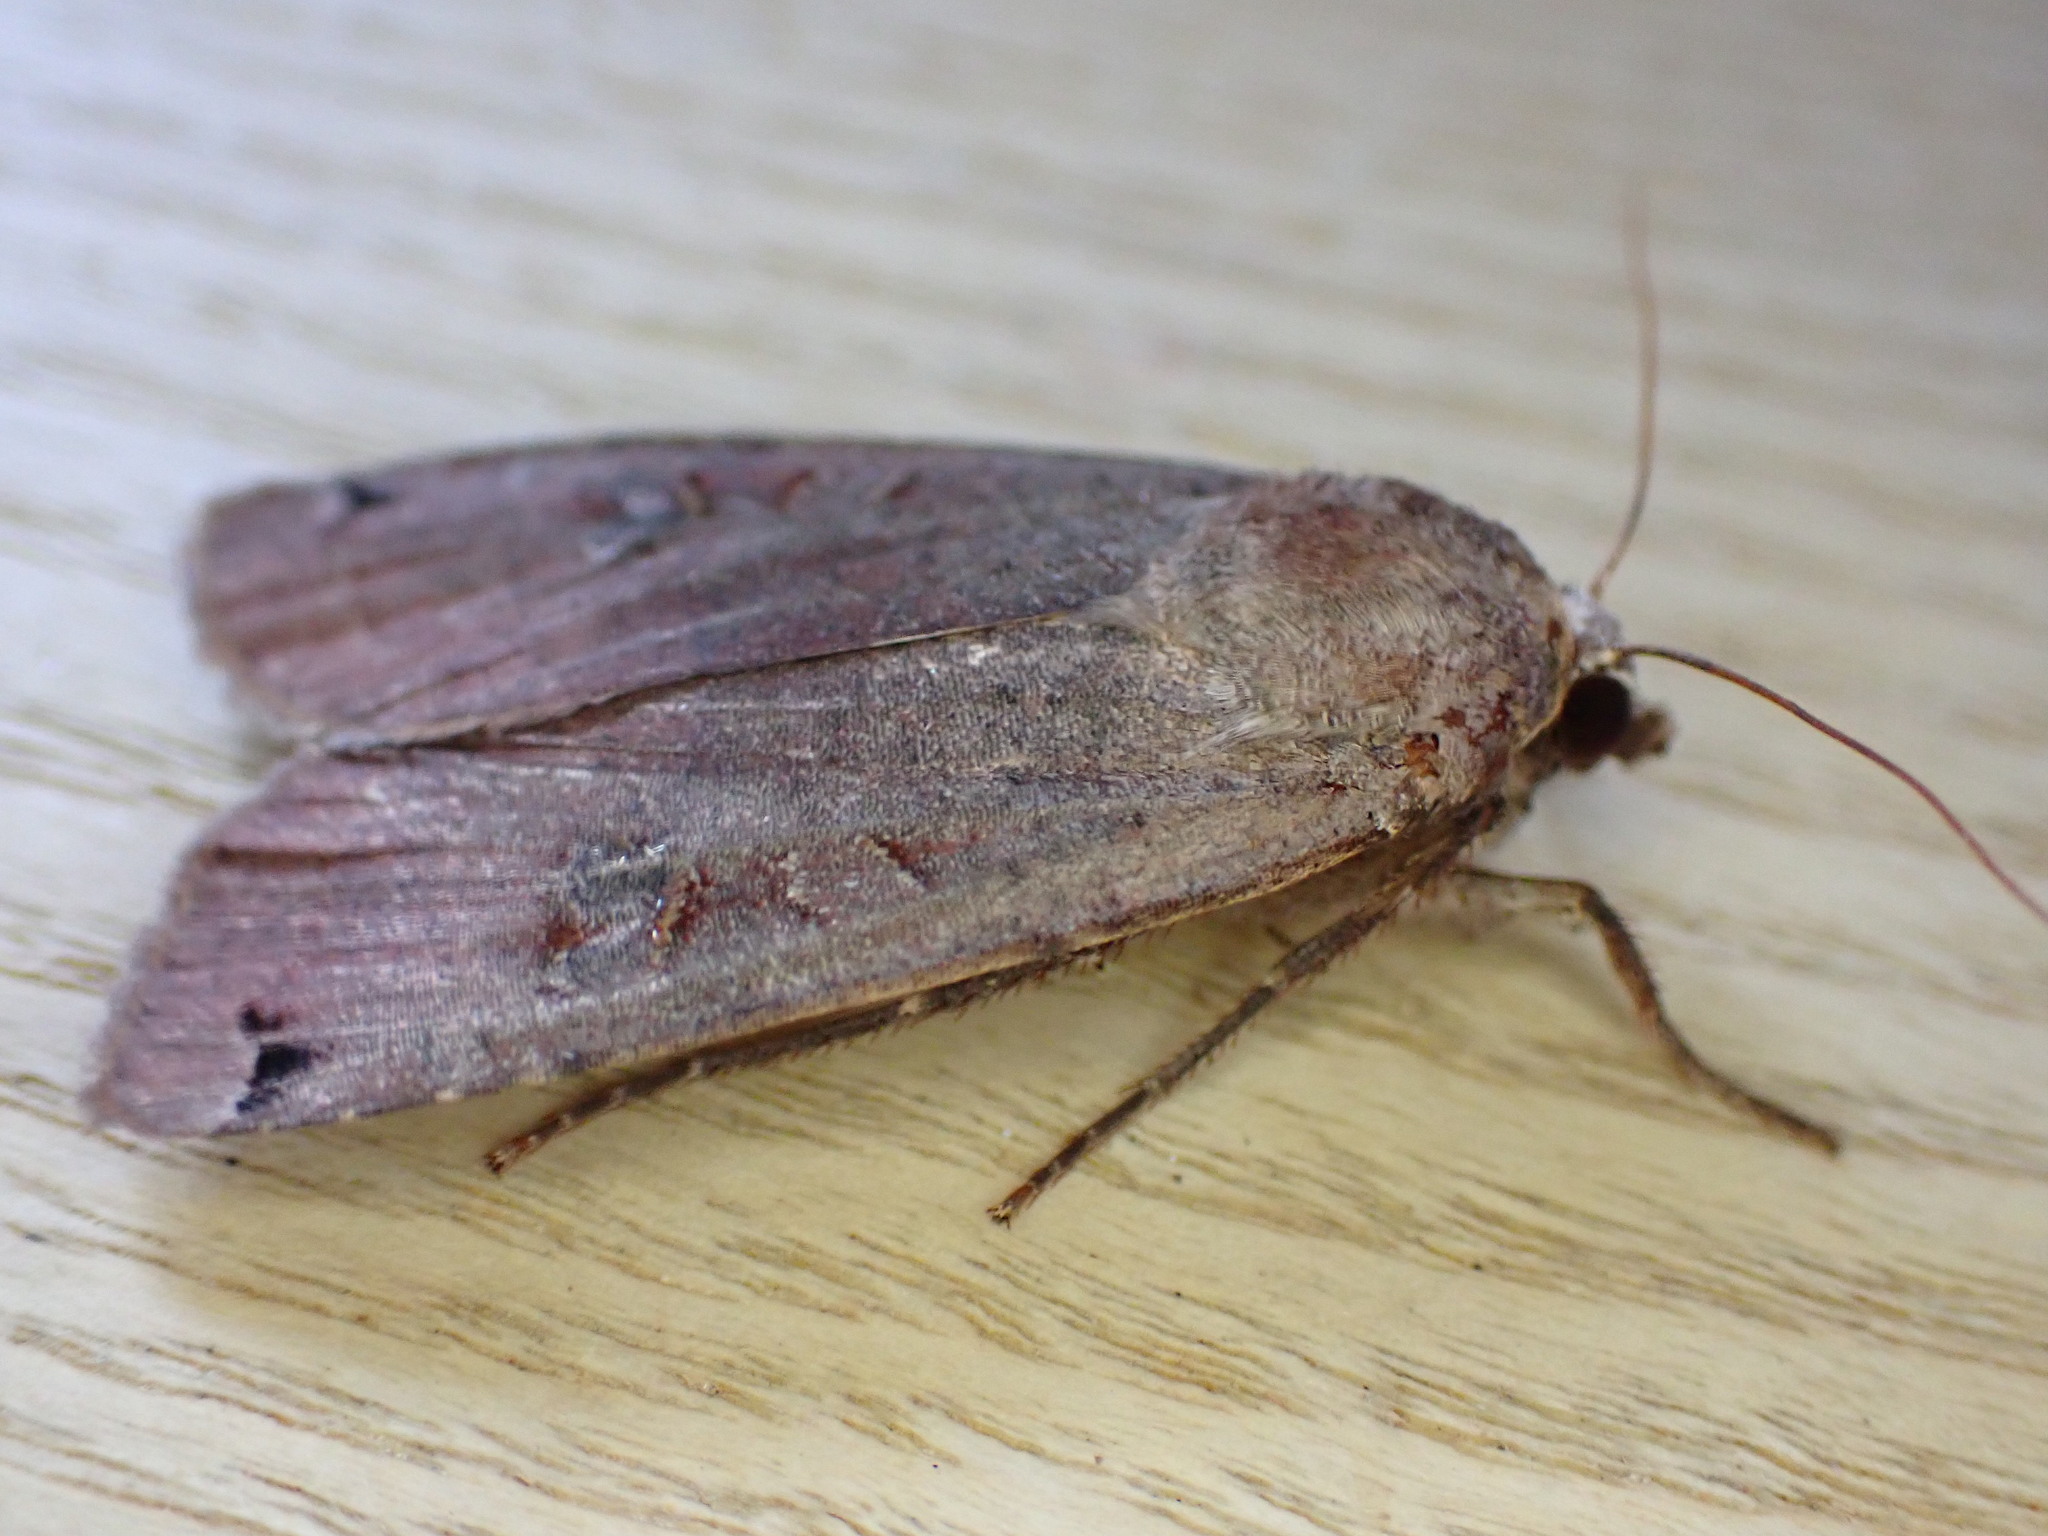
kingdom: Animalia
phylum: Arthropoda
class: Insecta
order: Lepidoptera
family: Noctuidae
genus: Noctua
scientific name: Noctua pronuba
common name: Large yellow underwing
